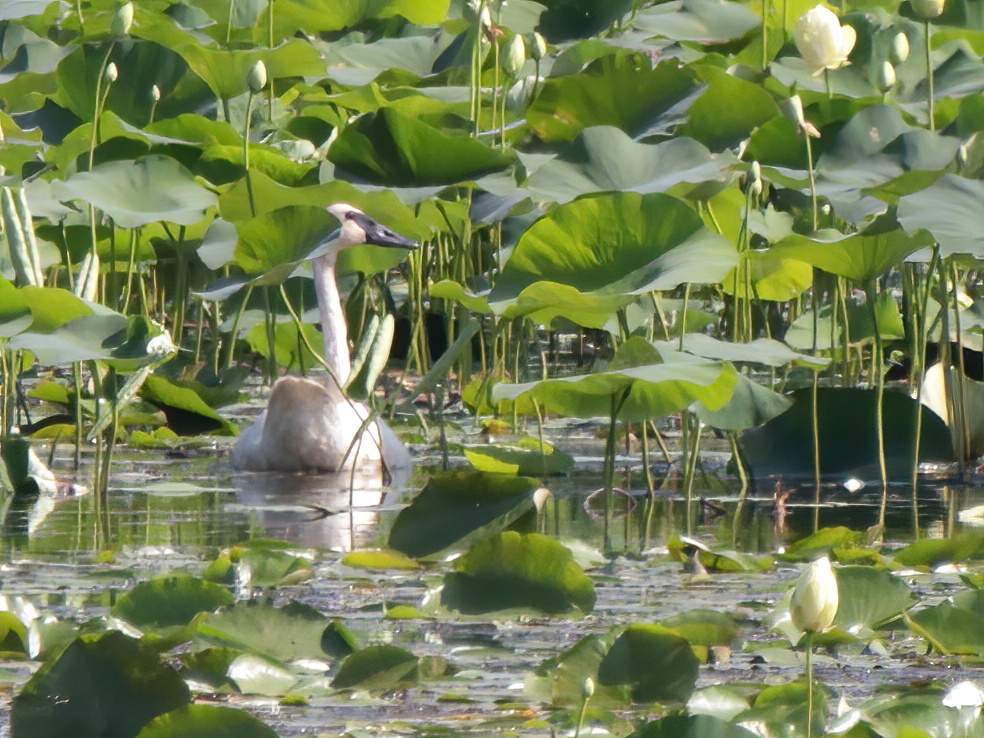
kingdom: Animalia
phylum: Chordata
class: Aves
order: Anseriformes
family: Anatidae
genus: Cygnus
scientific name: Cygnus buccinator
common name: Trumpeter swan
